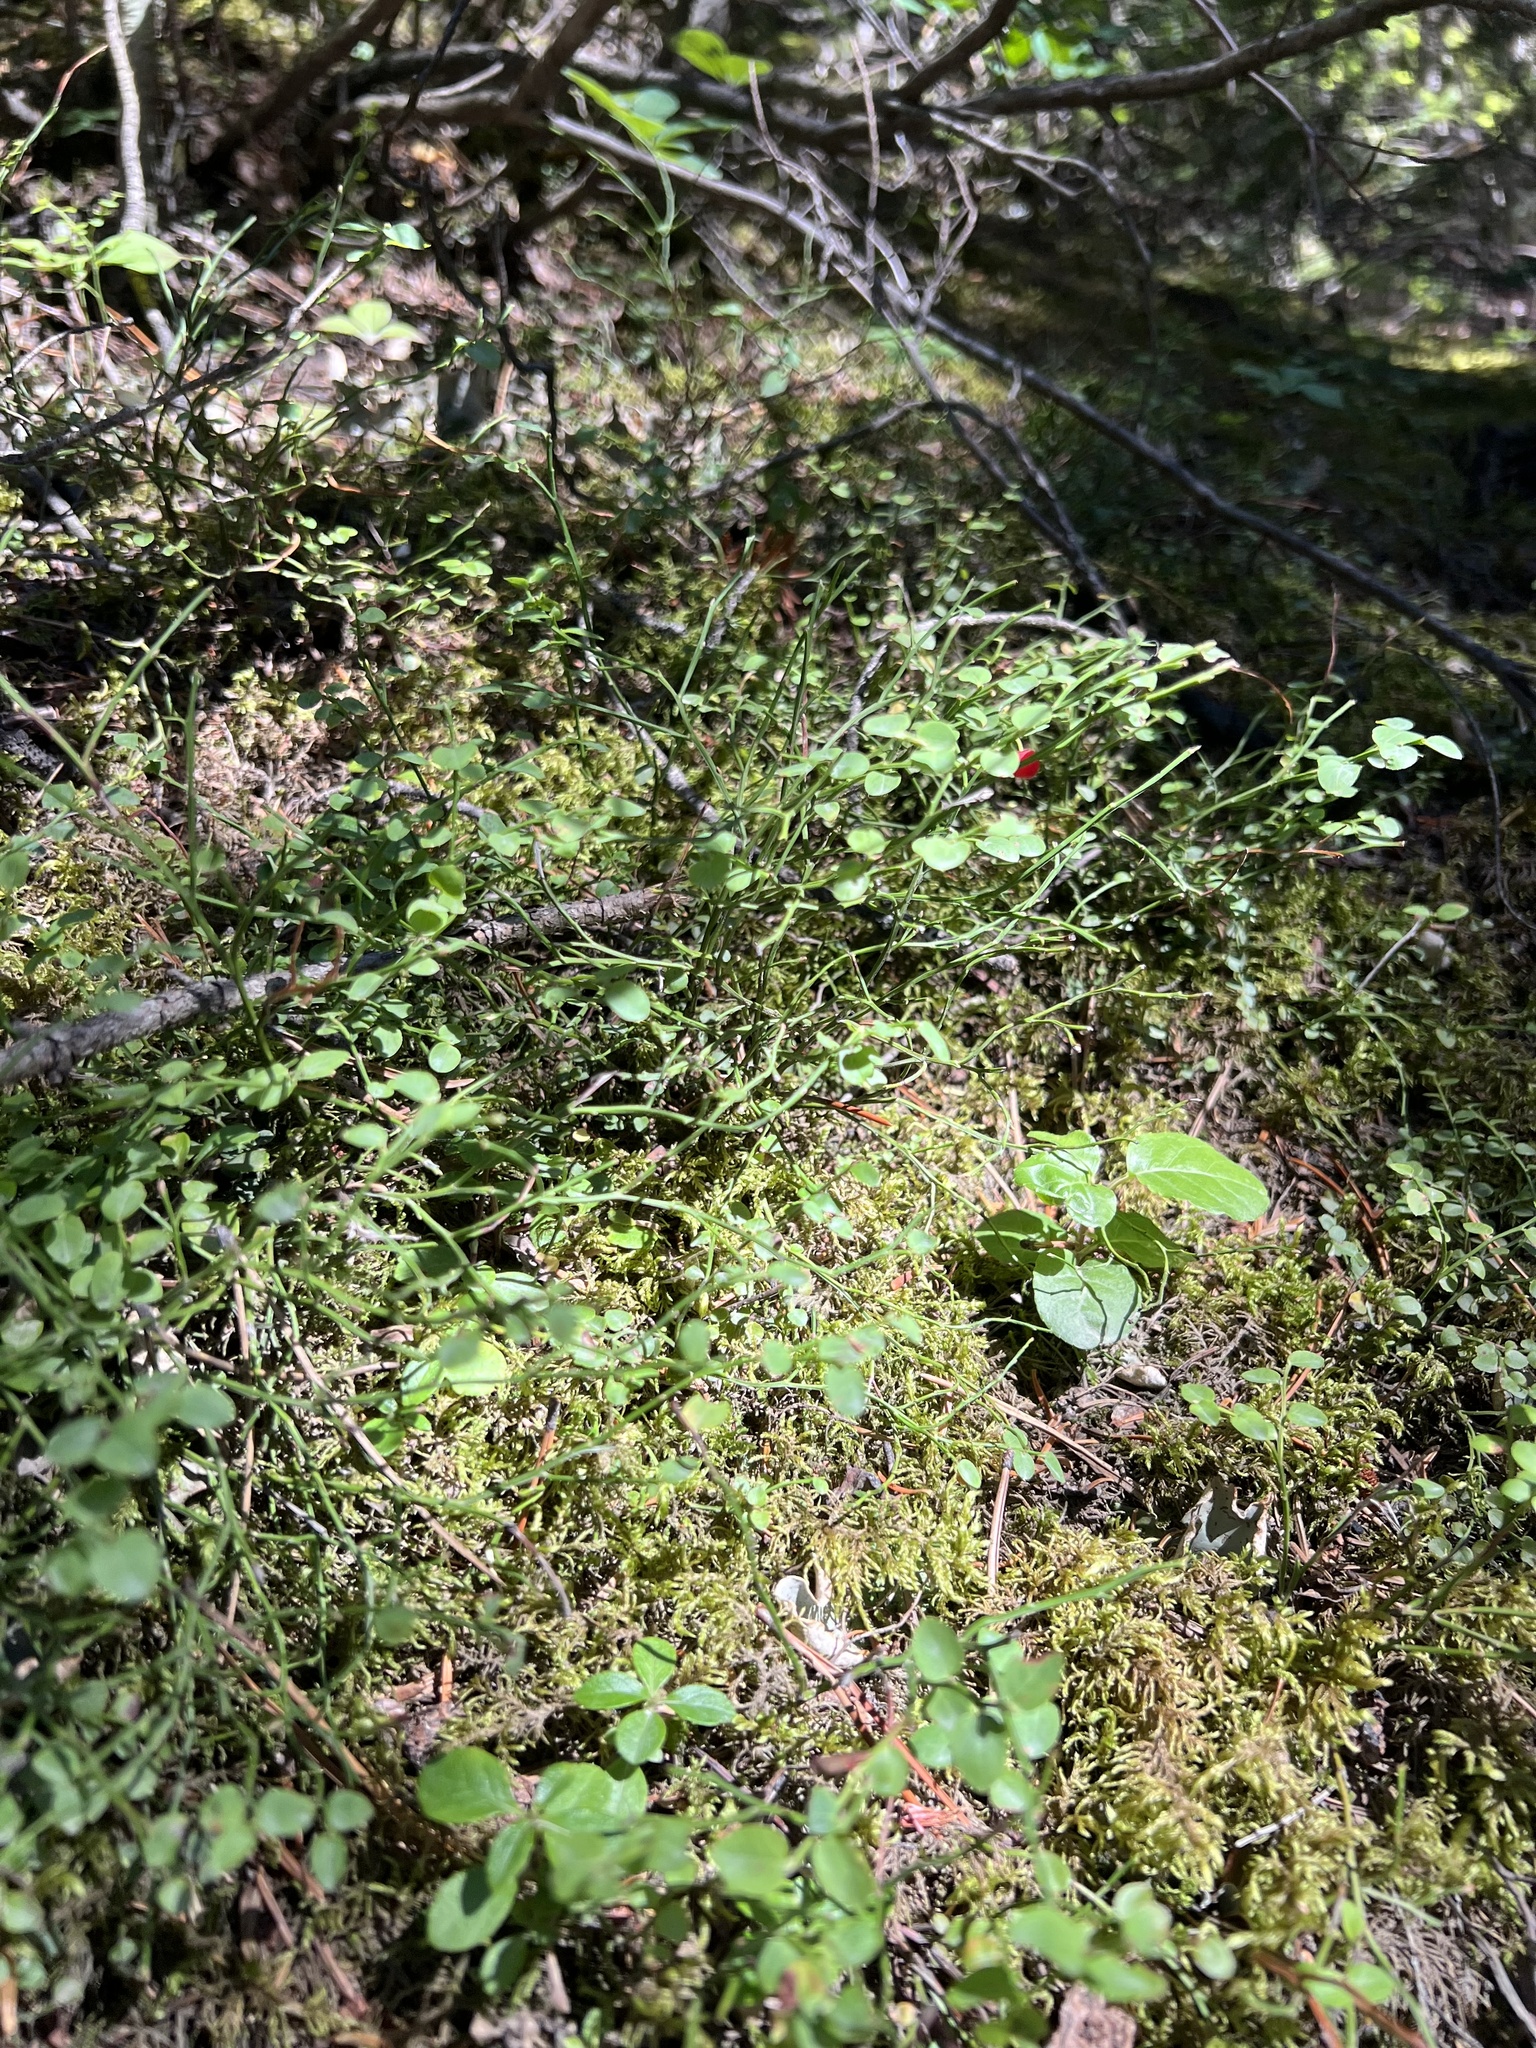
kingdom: Plantae
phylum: Tracheophyta
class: Magnoliopsida
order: Ericales
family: Ericaceae
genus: Vaccinium
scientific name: Vaccinium scoparium
